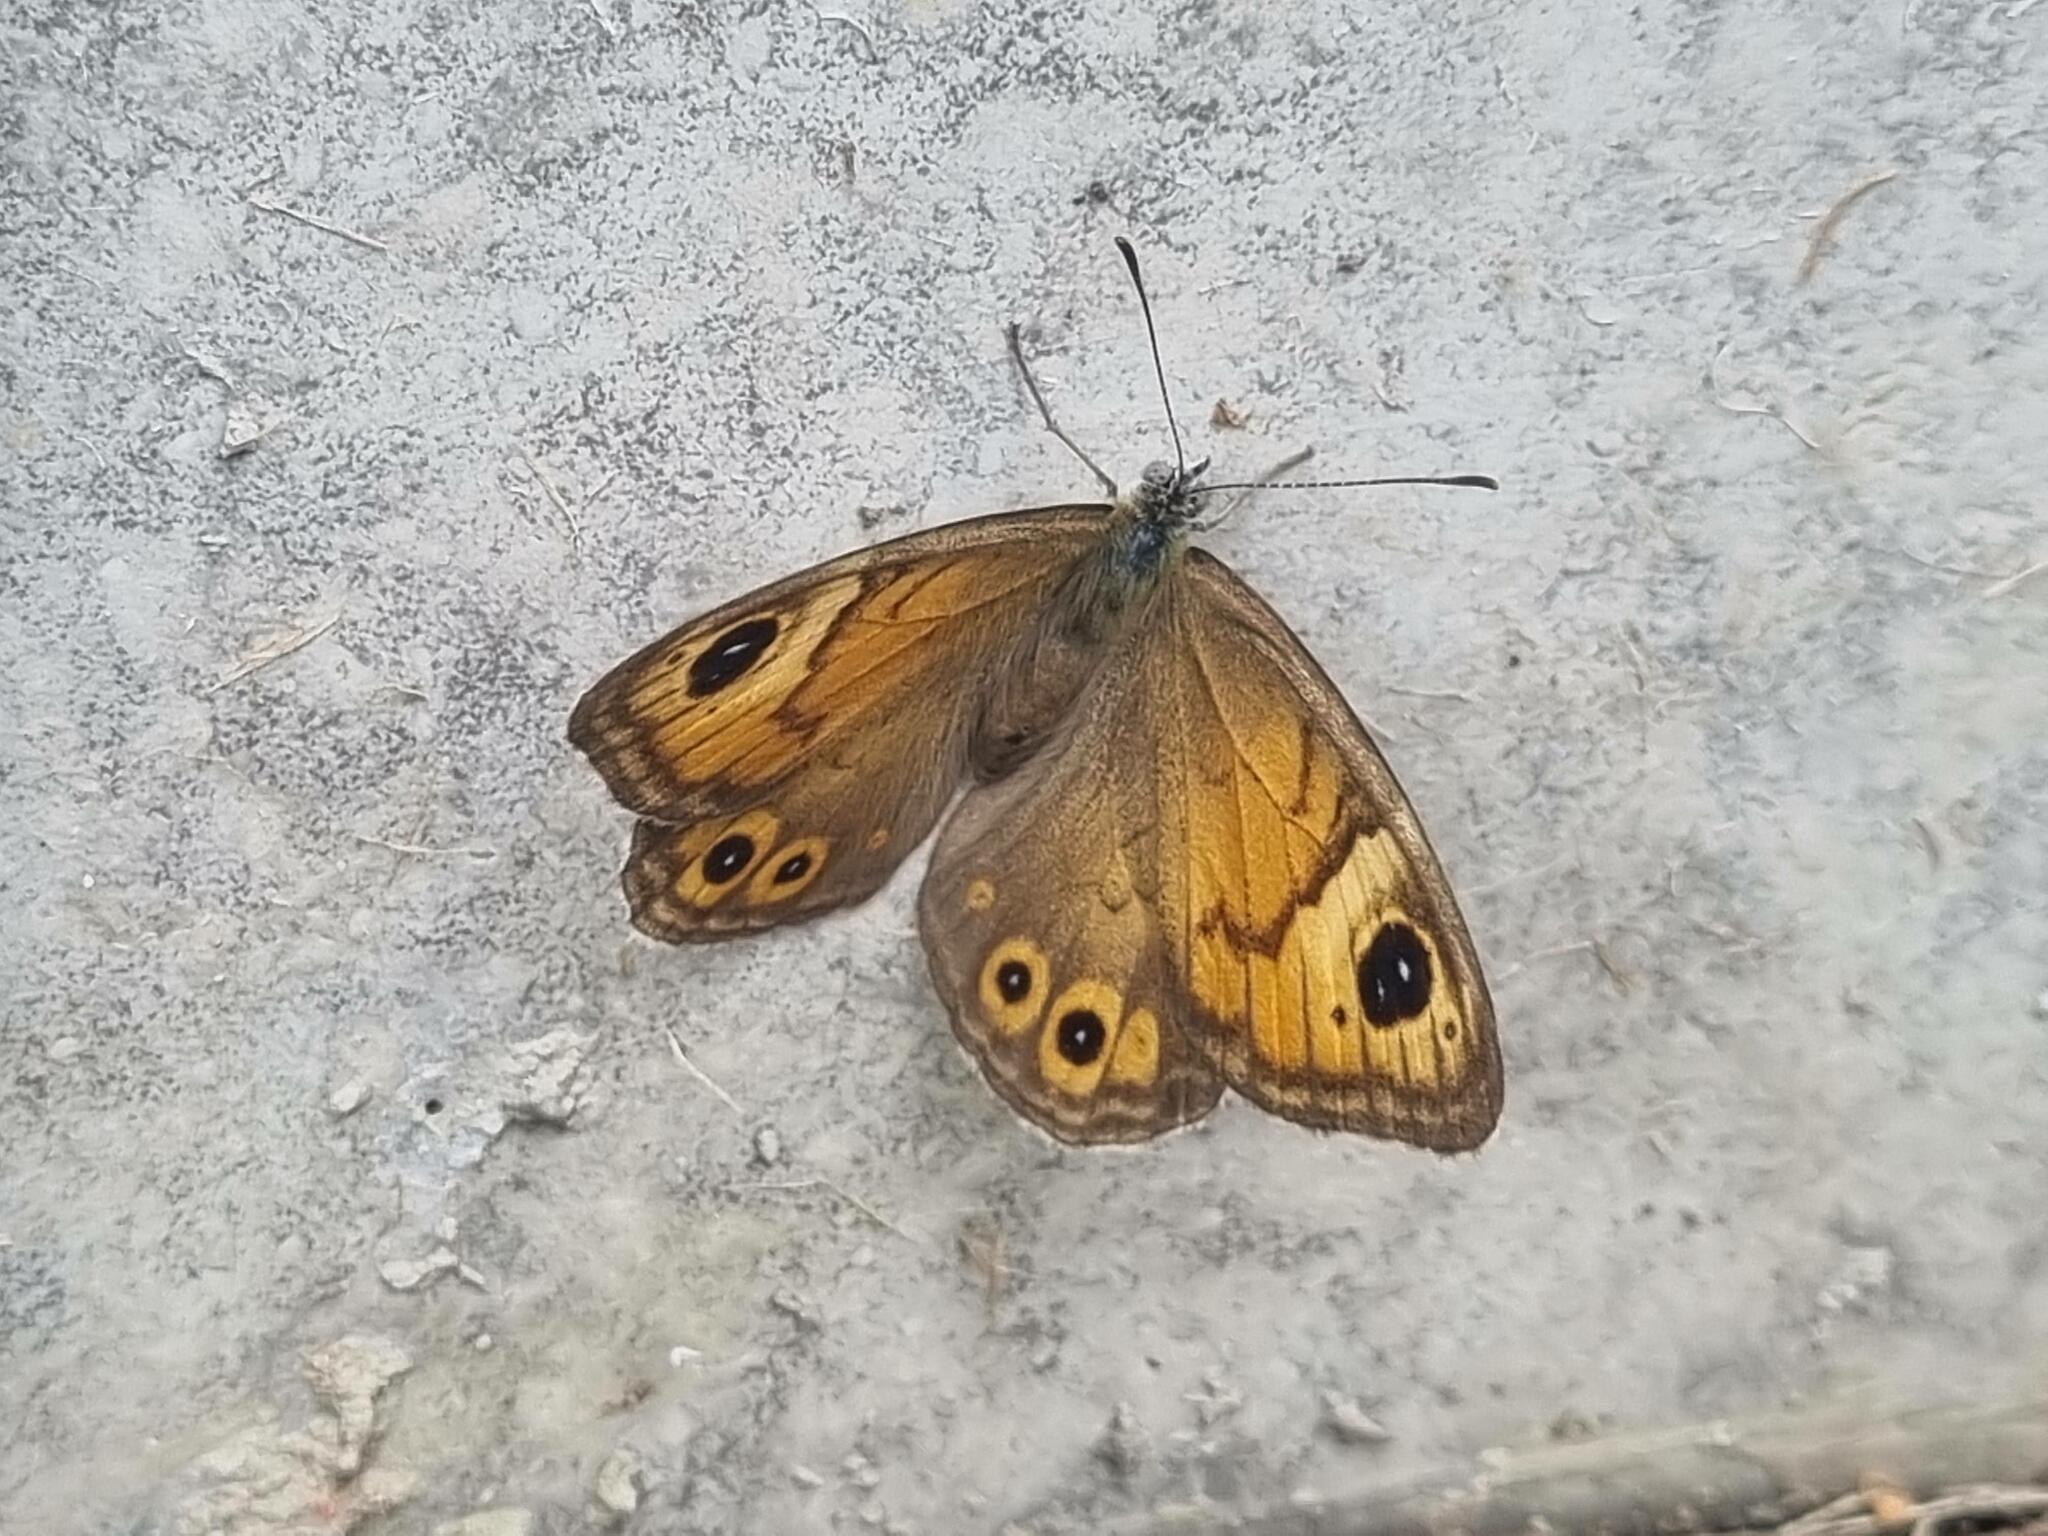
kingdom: Animalia
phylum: Arthropoda
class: Insecta
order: Lepidoptera
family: Nymphalidae
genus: Pararge
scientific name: Pararge Lasiommata maera
